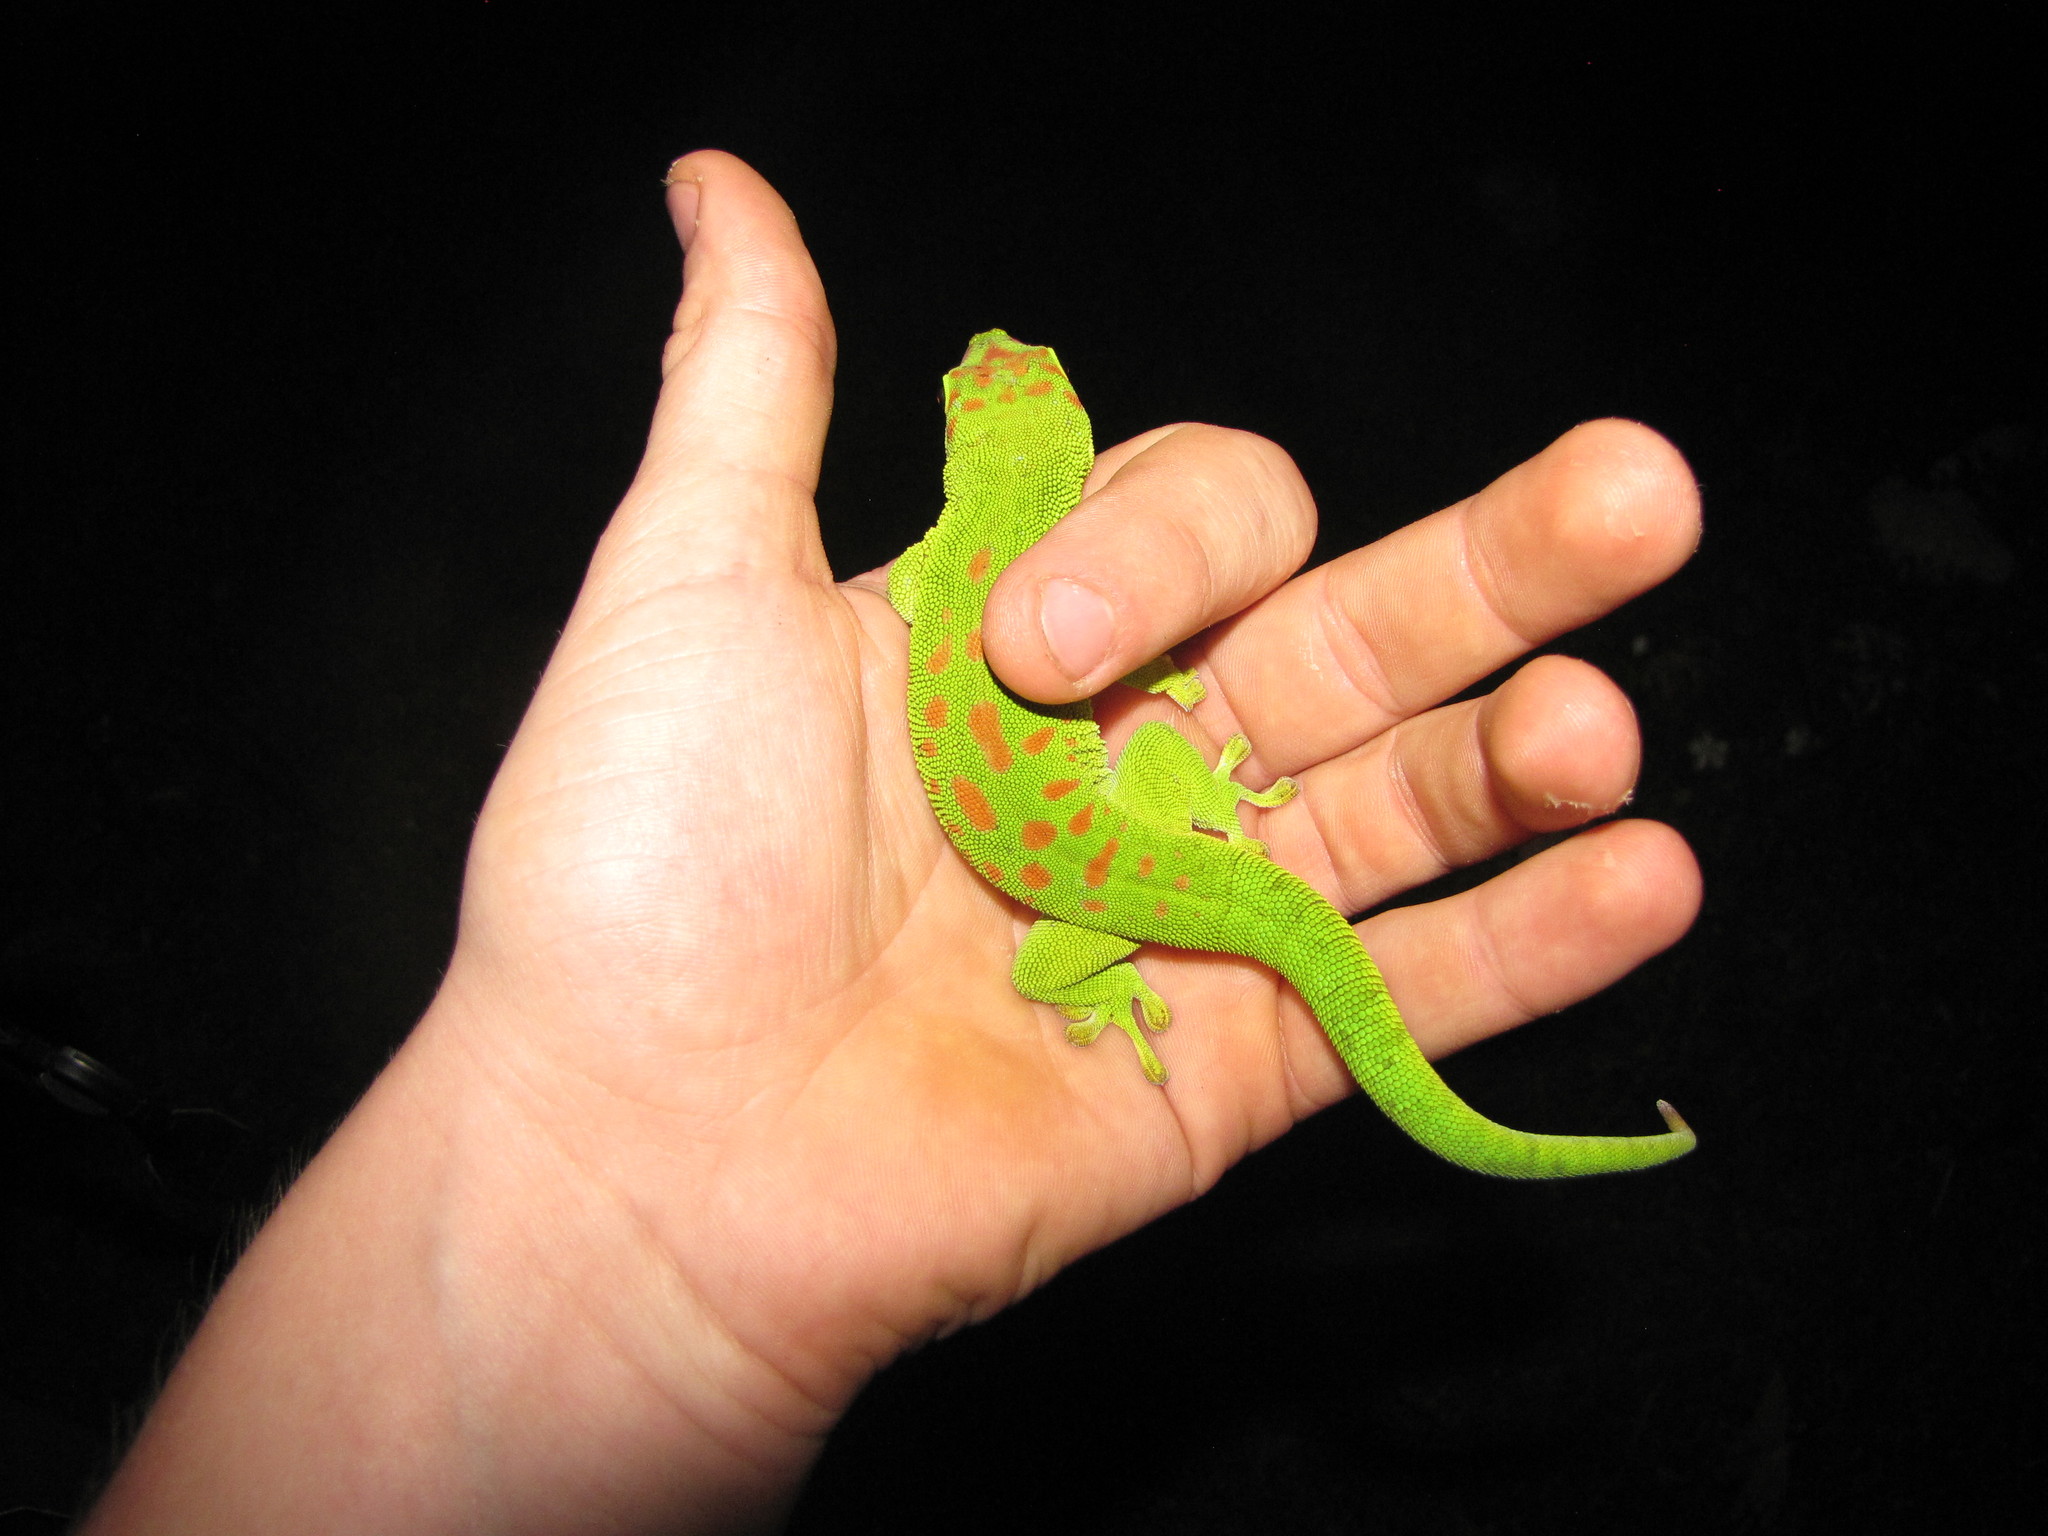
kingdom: Animalia
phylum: Chordata
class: Squamata
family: Gekkonidae
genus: Phelsuma
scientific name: Phelsuma grandis
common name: Madagascar giant day gecko
